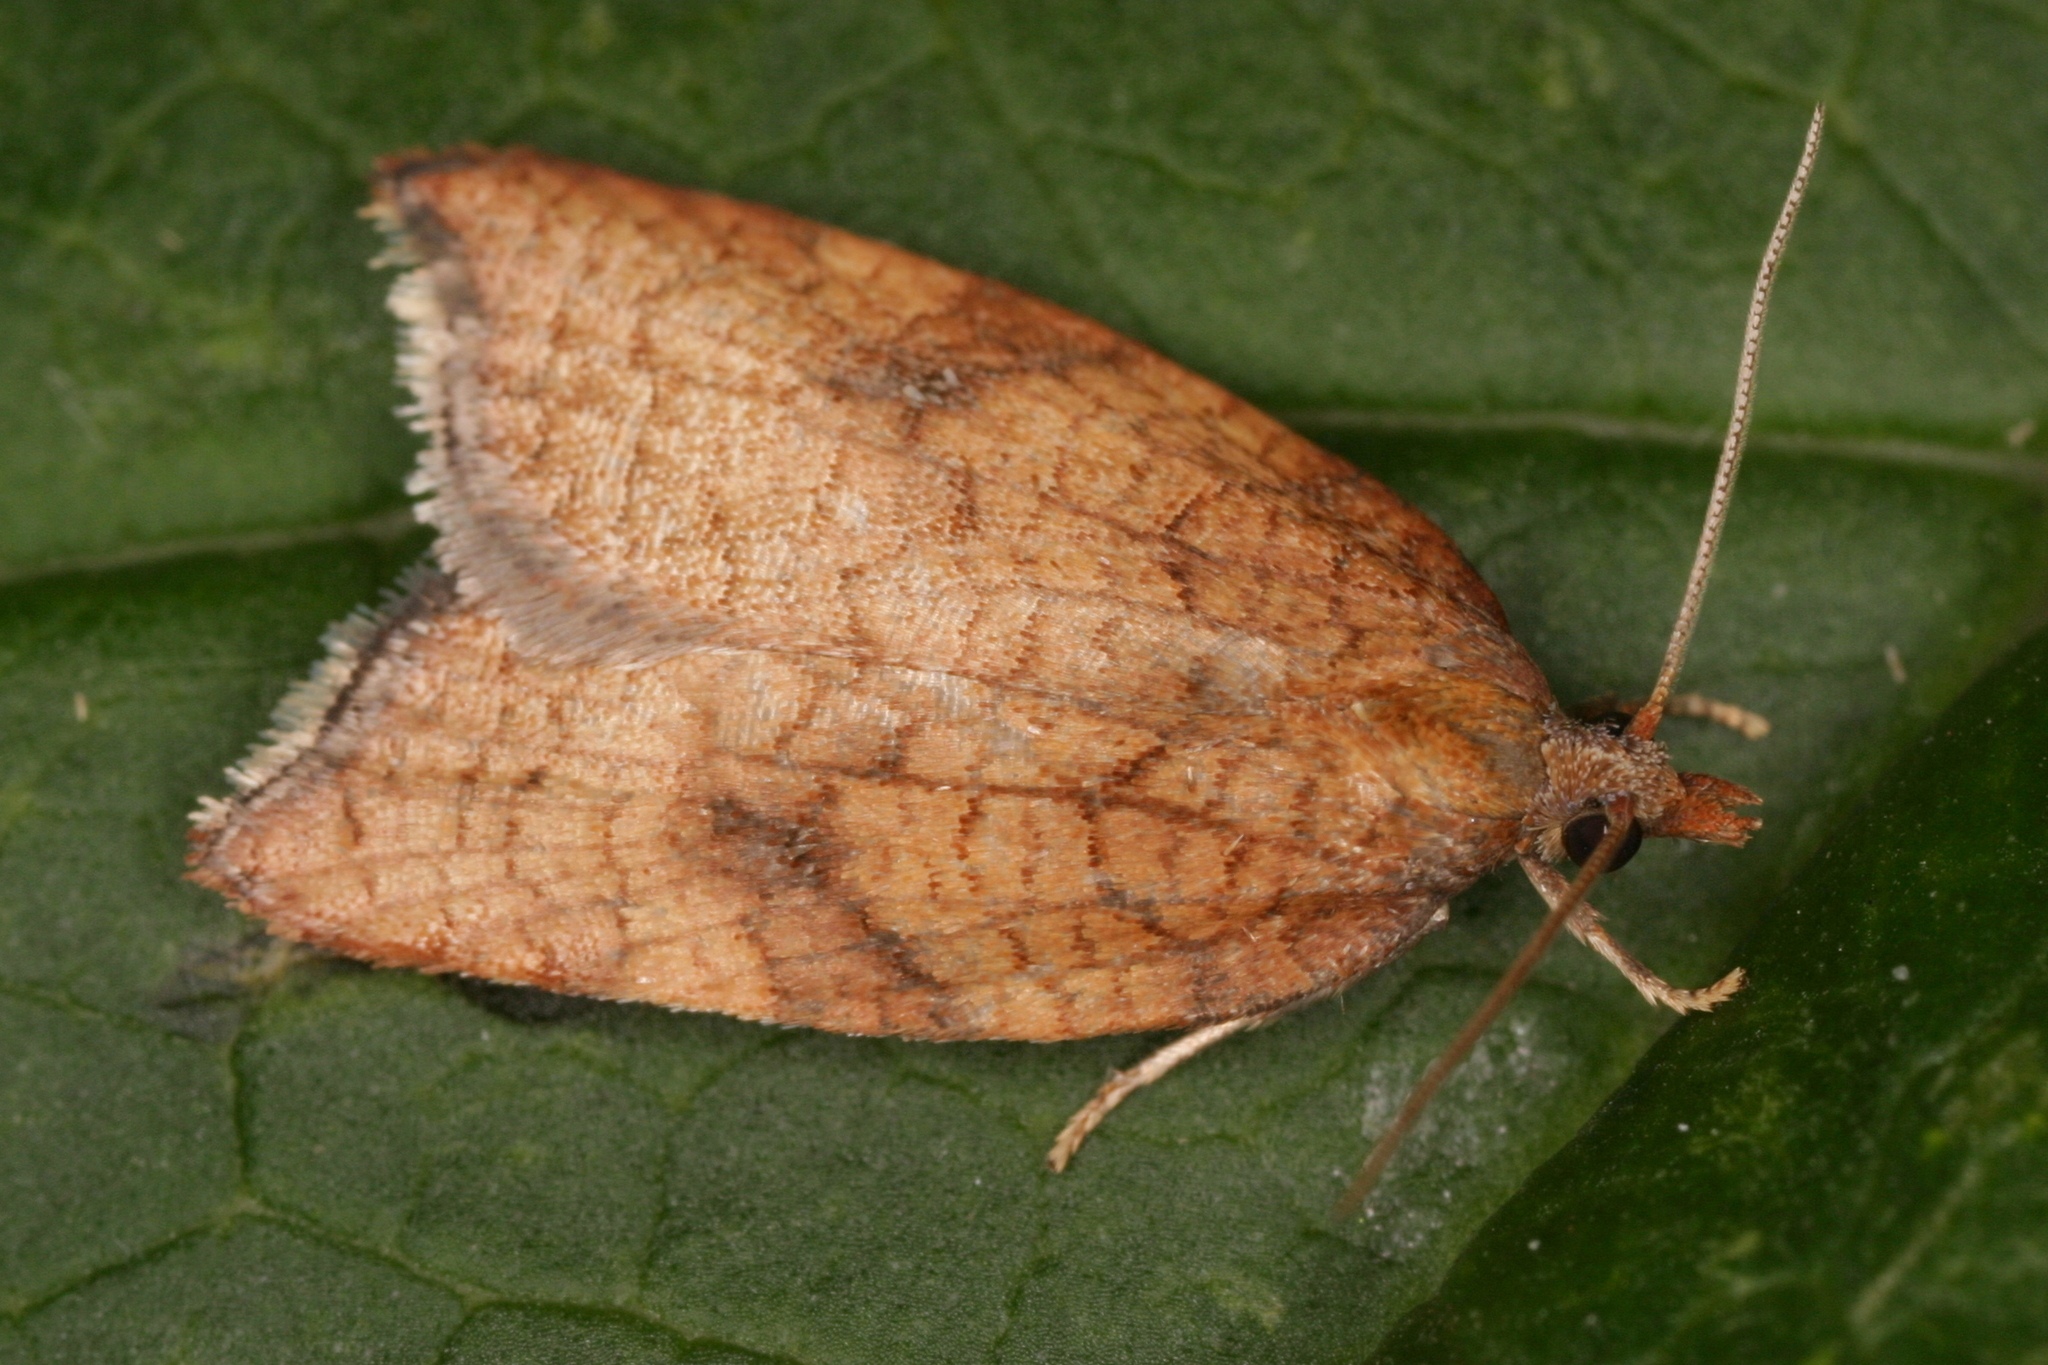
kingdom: Animalia
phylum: Arthropoda
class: Insecta
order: Lepidoptera
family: Tortricidae
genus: Acleris
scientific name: Acleris rhombana
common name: Tortricid moth
